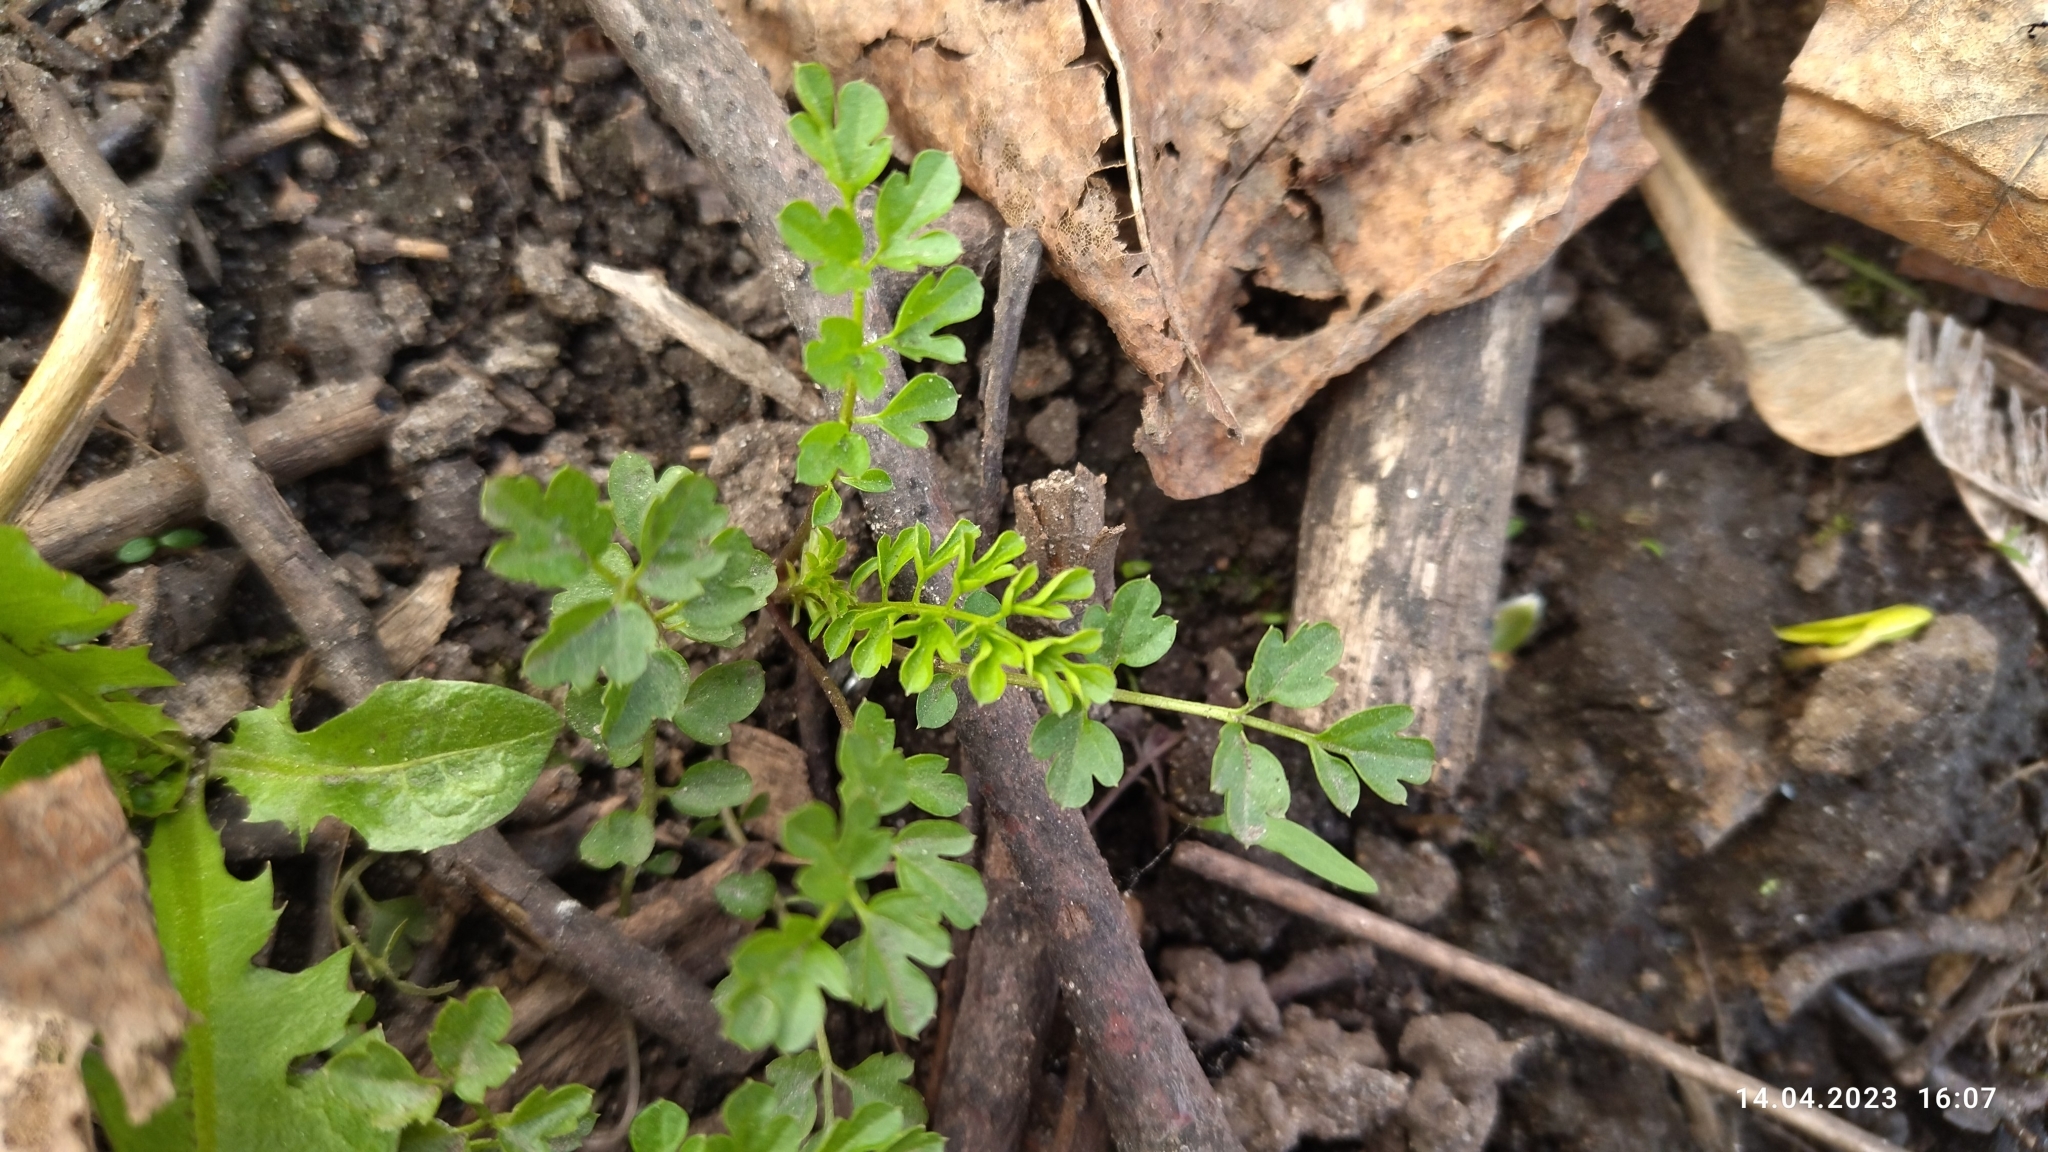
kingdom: Plantae
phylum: Tracheophyta
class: Magnoliopsida
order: Brassicales
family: Brassicaceae
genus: Cardamine
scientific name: Cardamine impatiens
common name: Narrow-leaved bitter-cress
